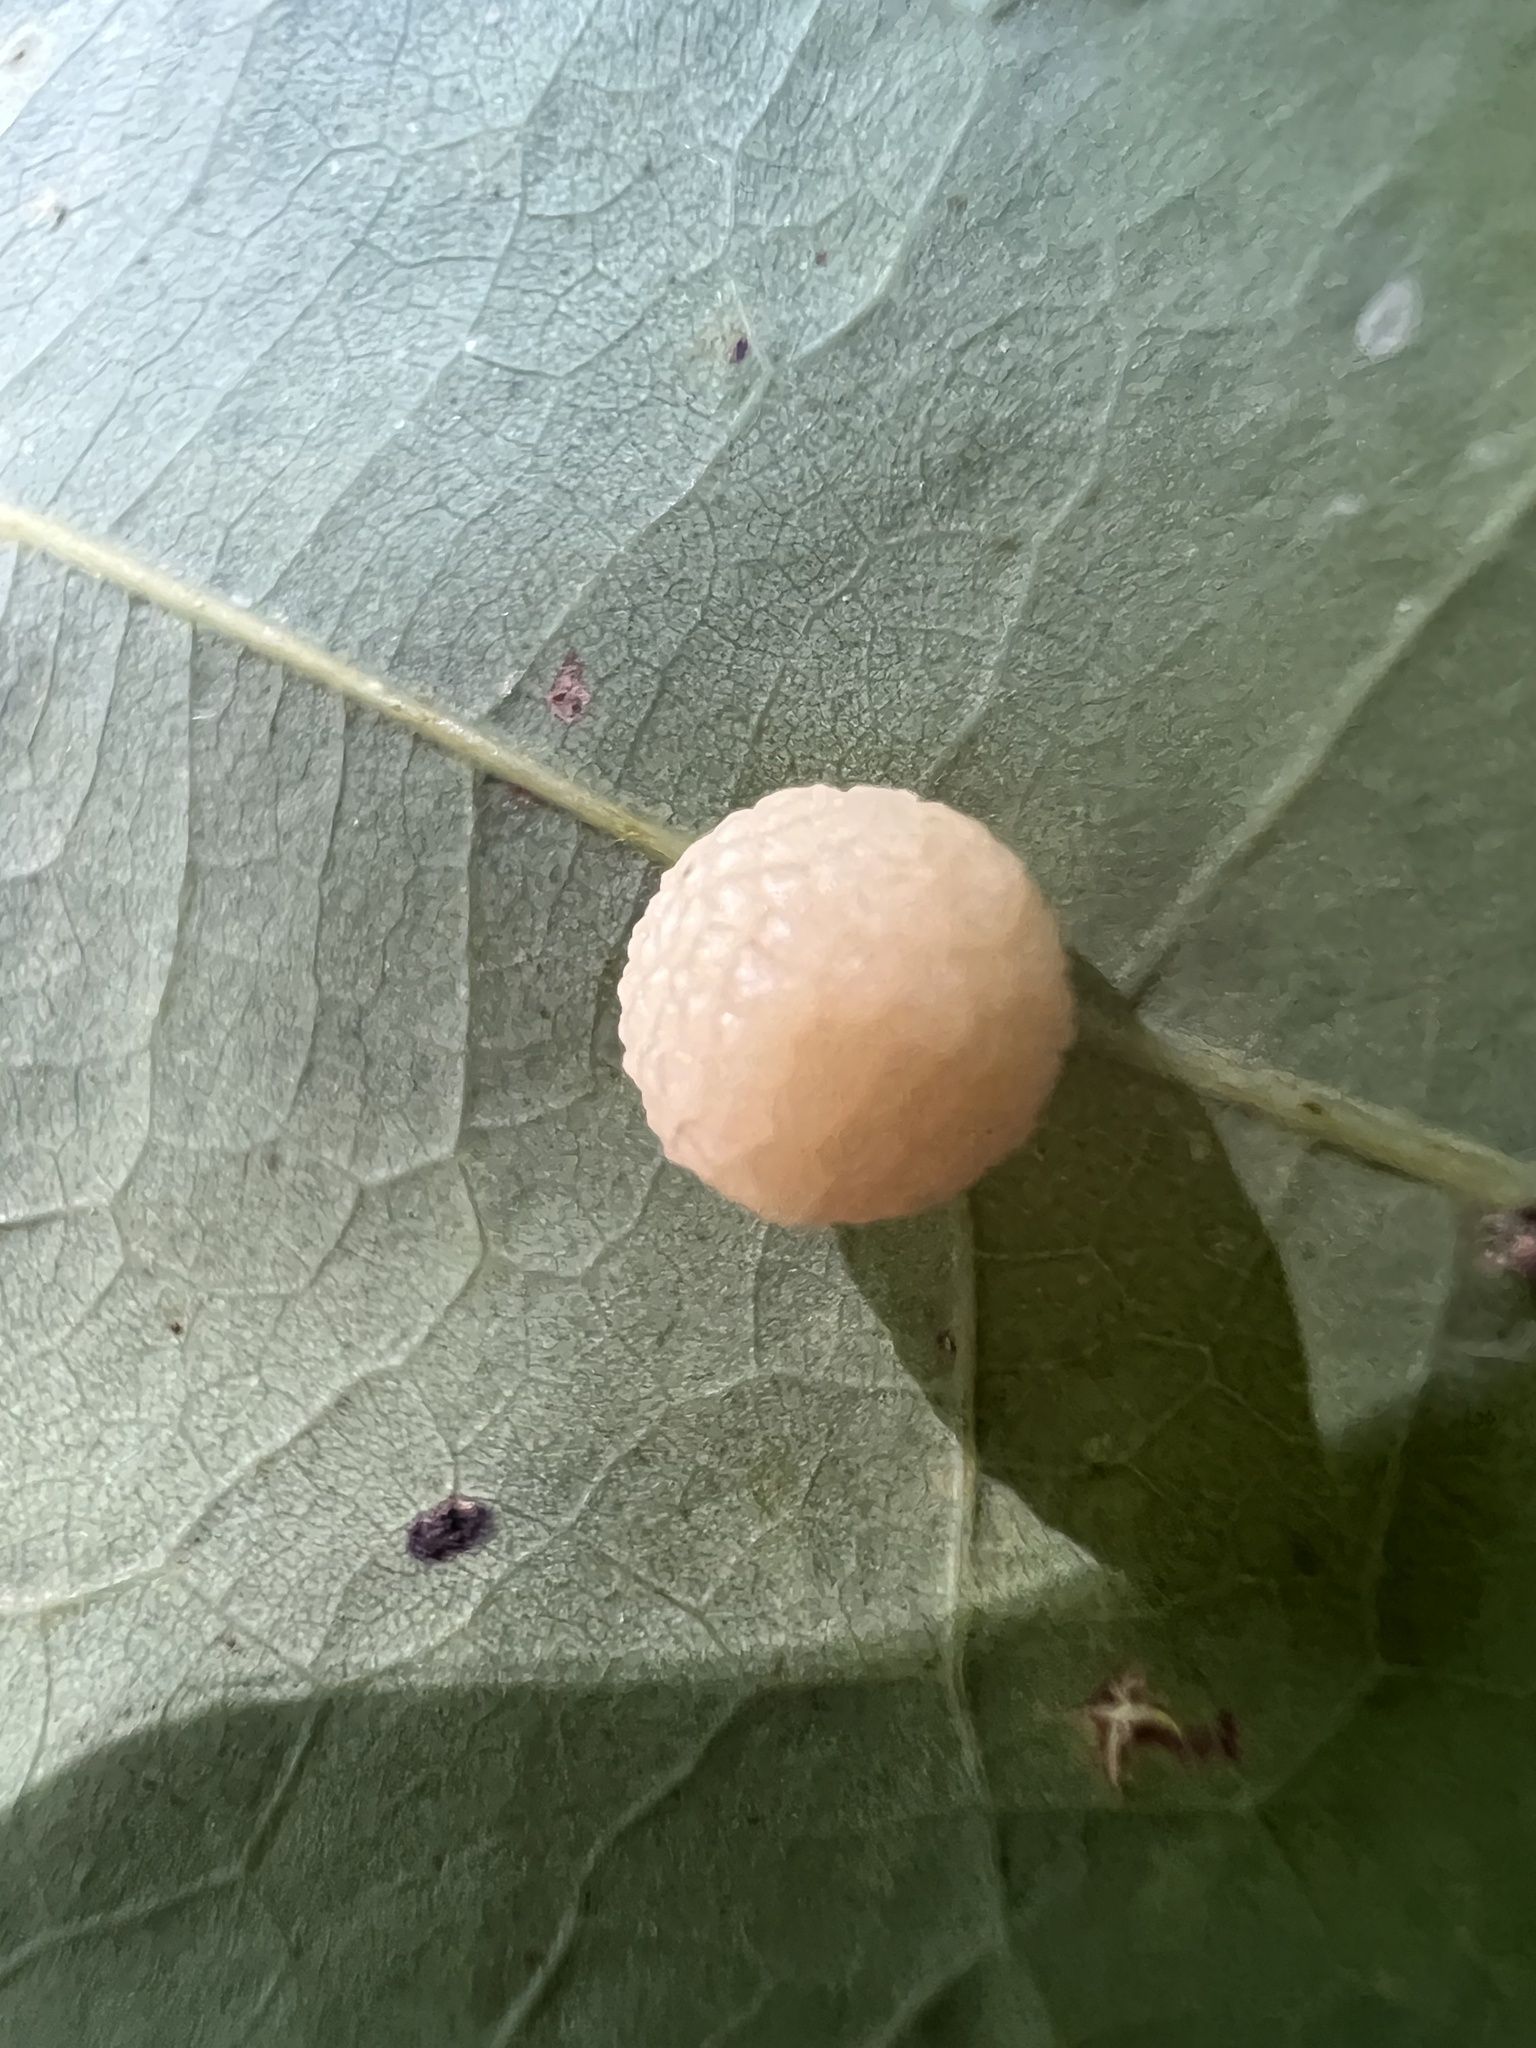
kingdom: Animalia
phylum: Arthropoda
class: Insecta
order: Hymenoptera
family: Cynipidae
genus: Acraspis
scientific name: Acraspis
